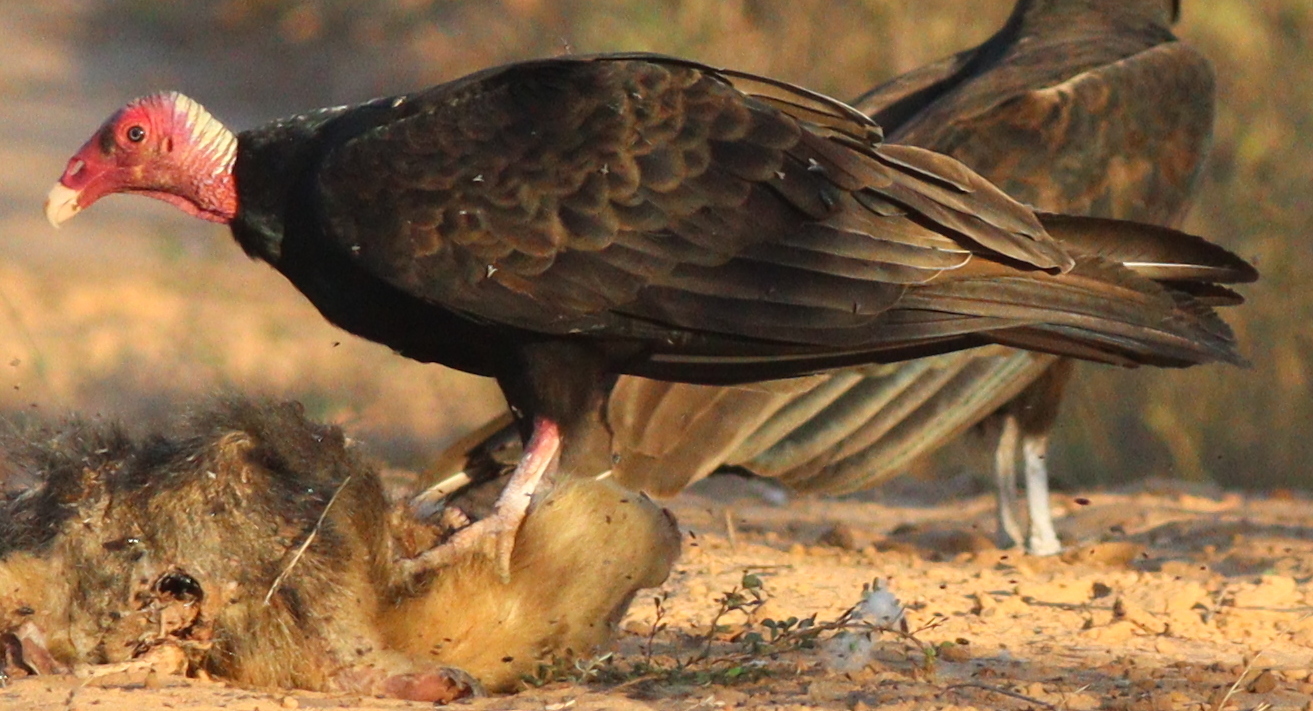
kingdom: Animalia
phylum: Chordata
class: Aves
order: Accipitriformes
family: Cathartidae
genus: Cathartes
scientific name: Cathartes aura
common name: Turkey vulture
